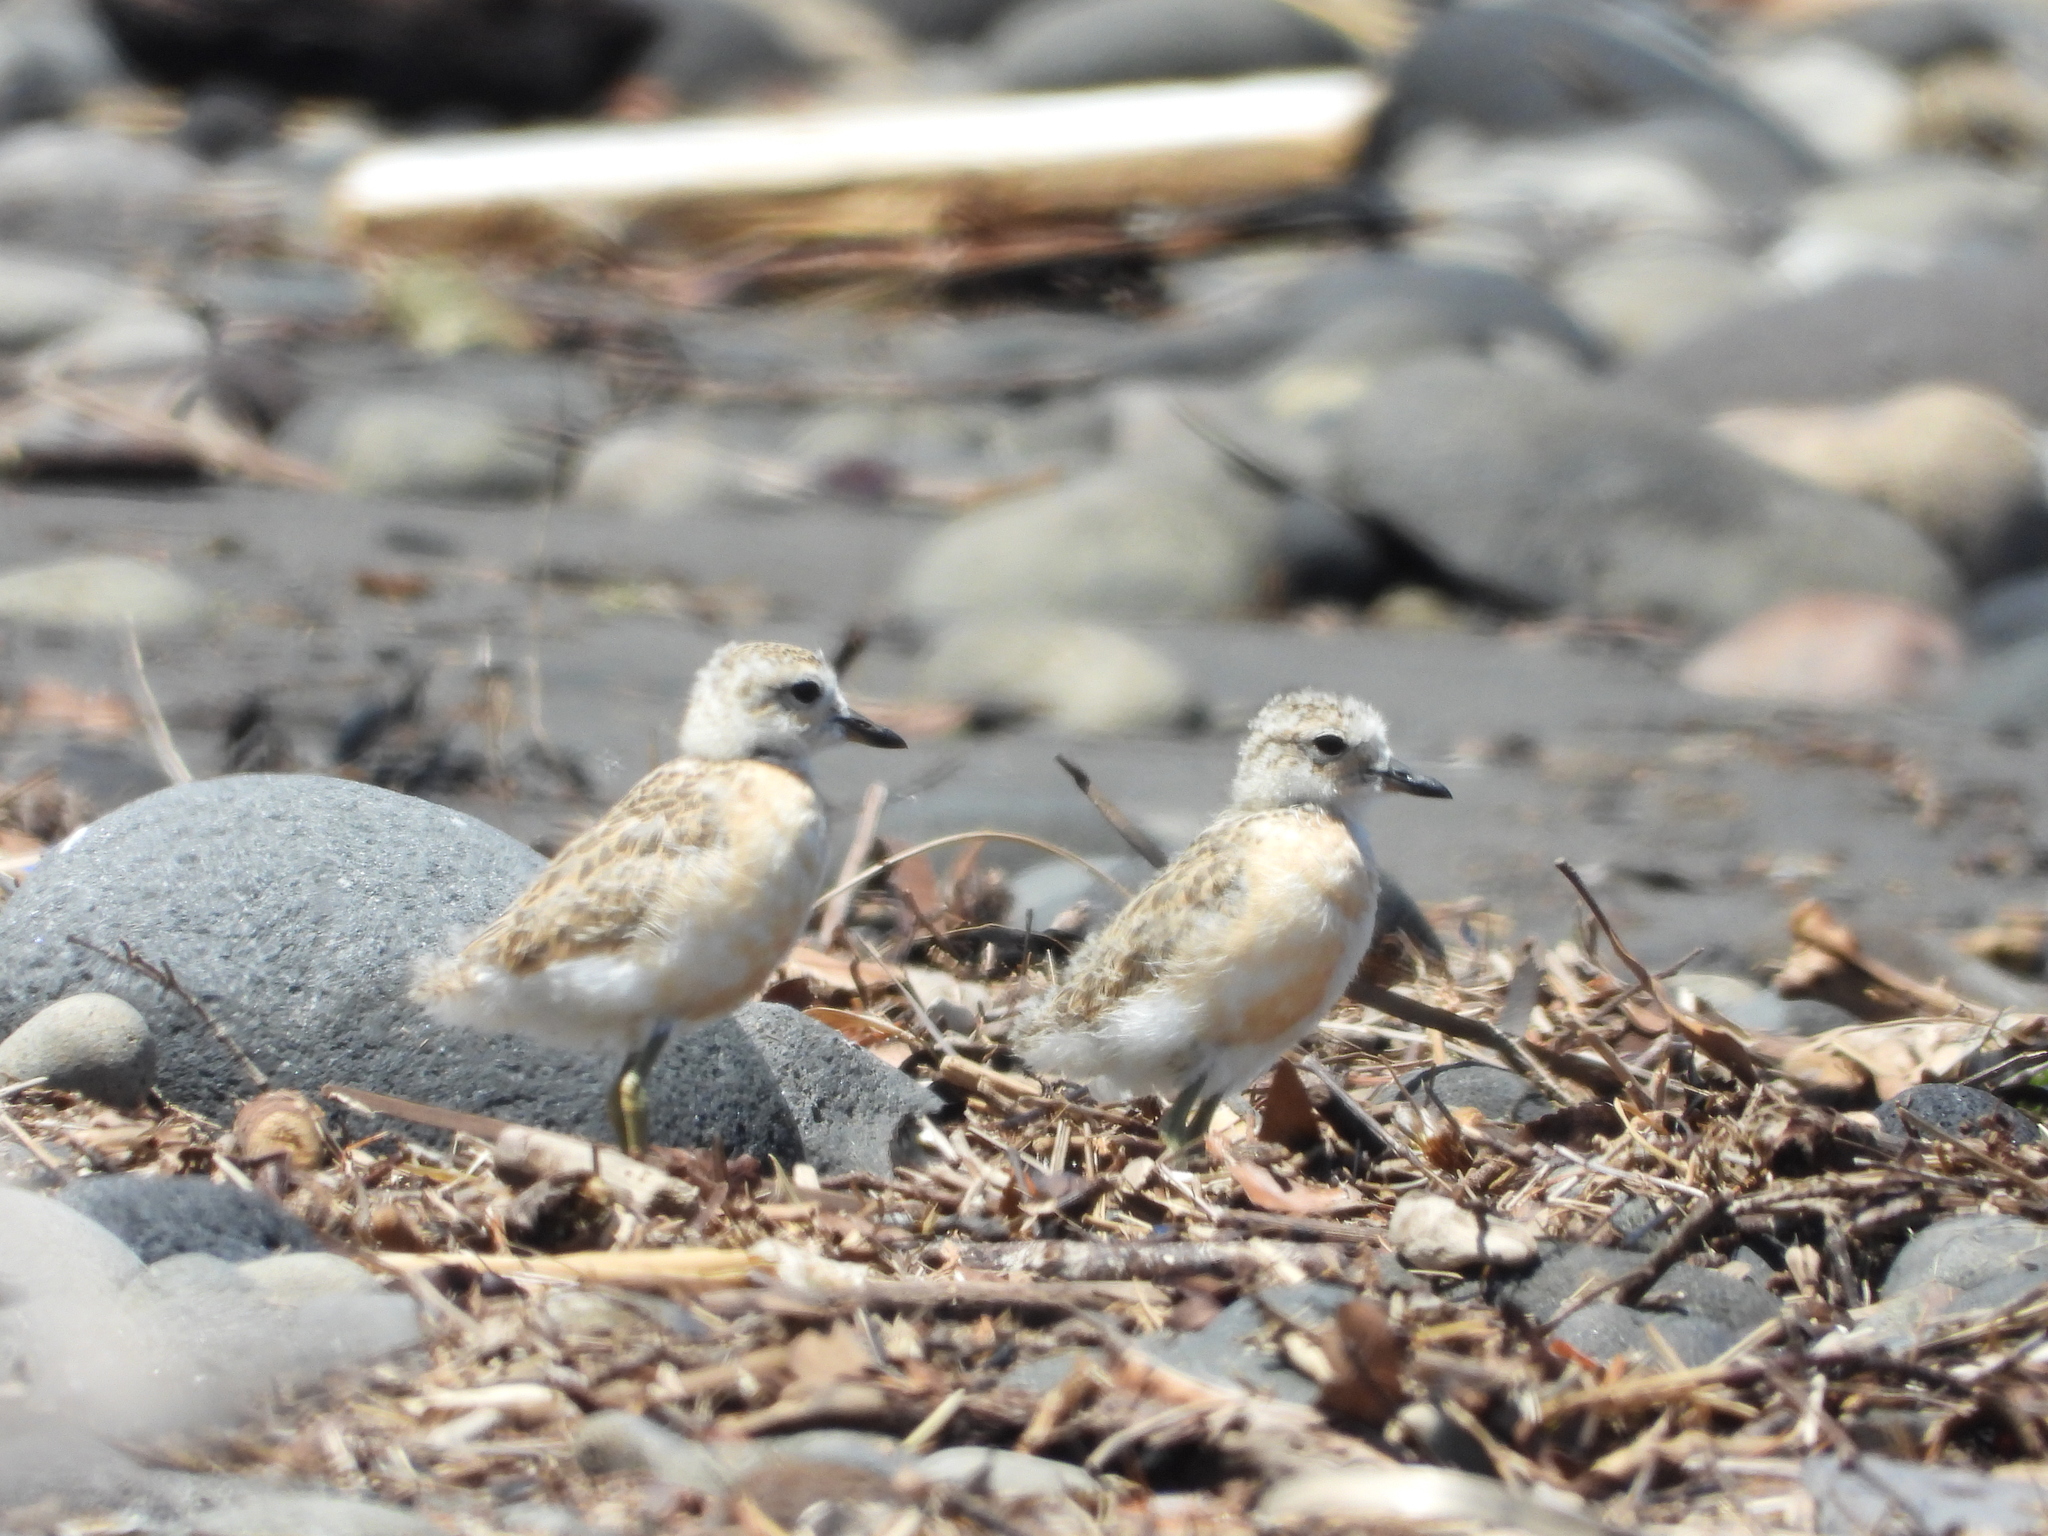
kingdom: Animalia
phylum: Chordata
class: Aves
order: Charadriiformes
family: Charadriidae
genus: Anarhynchus
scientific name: Anarhynchus
